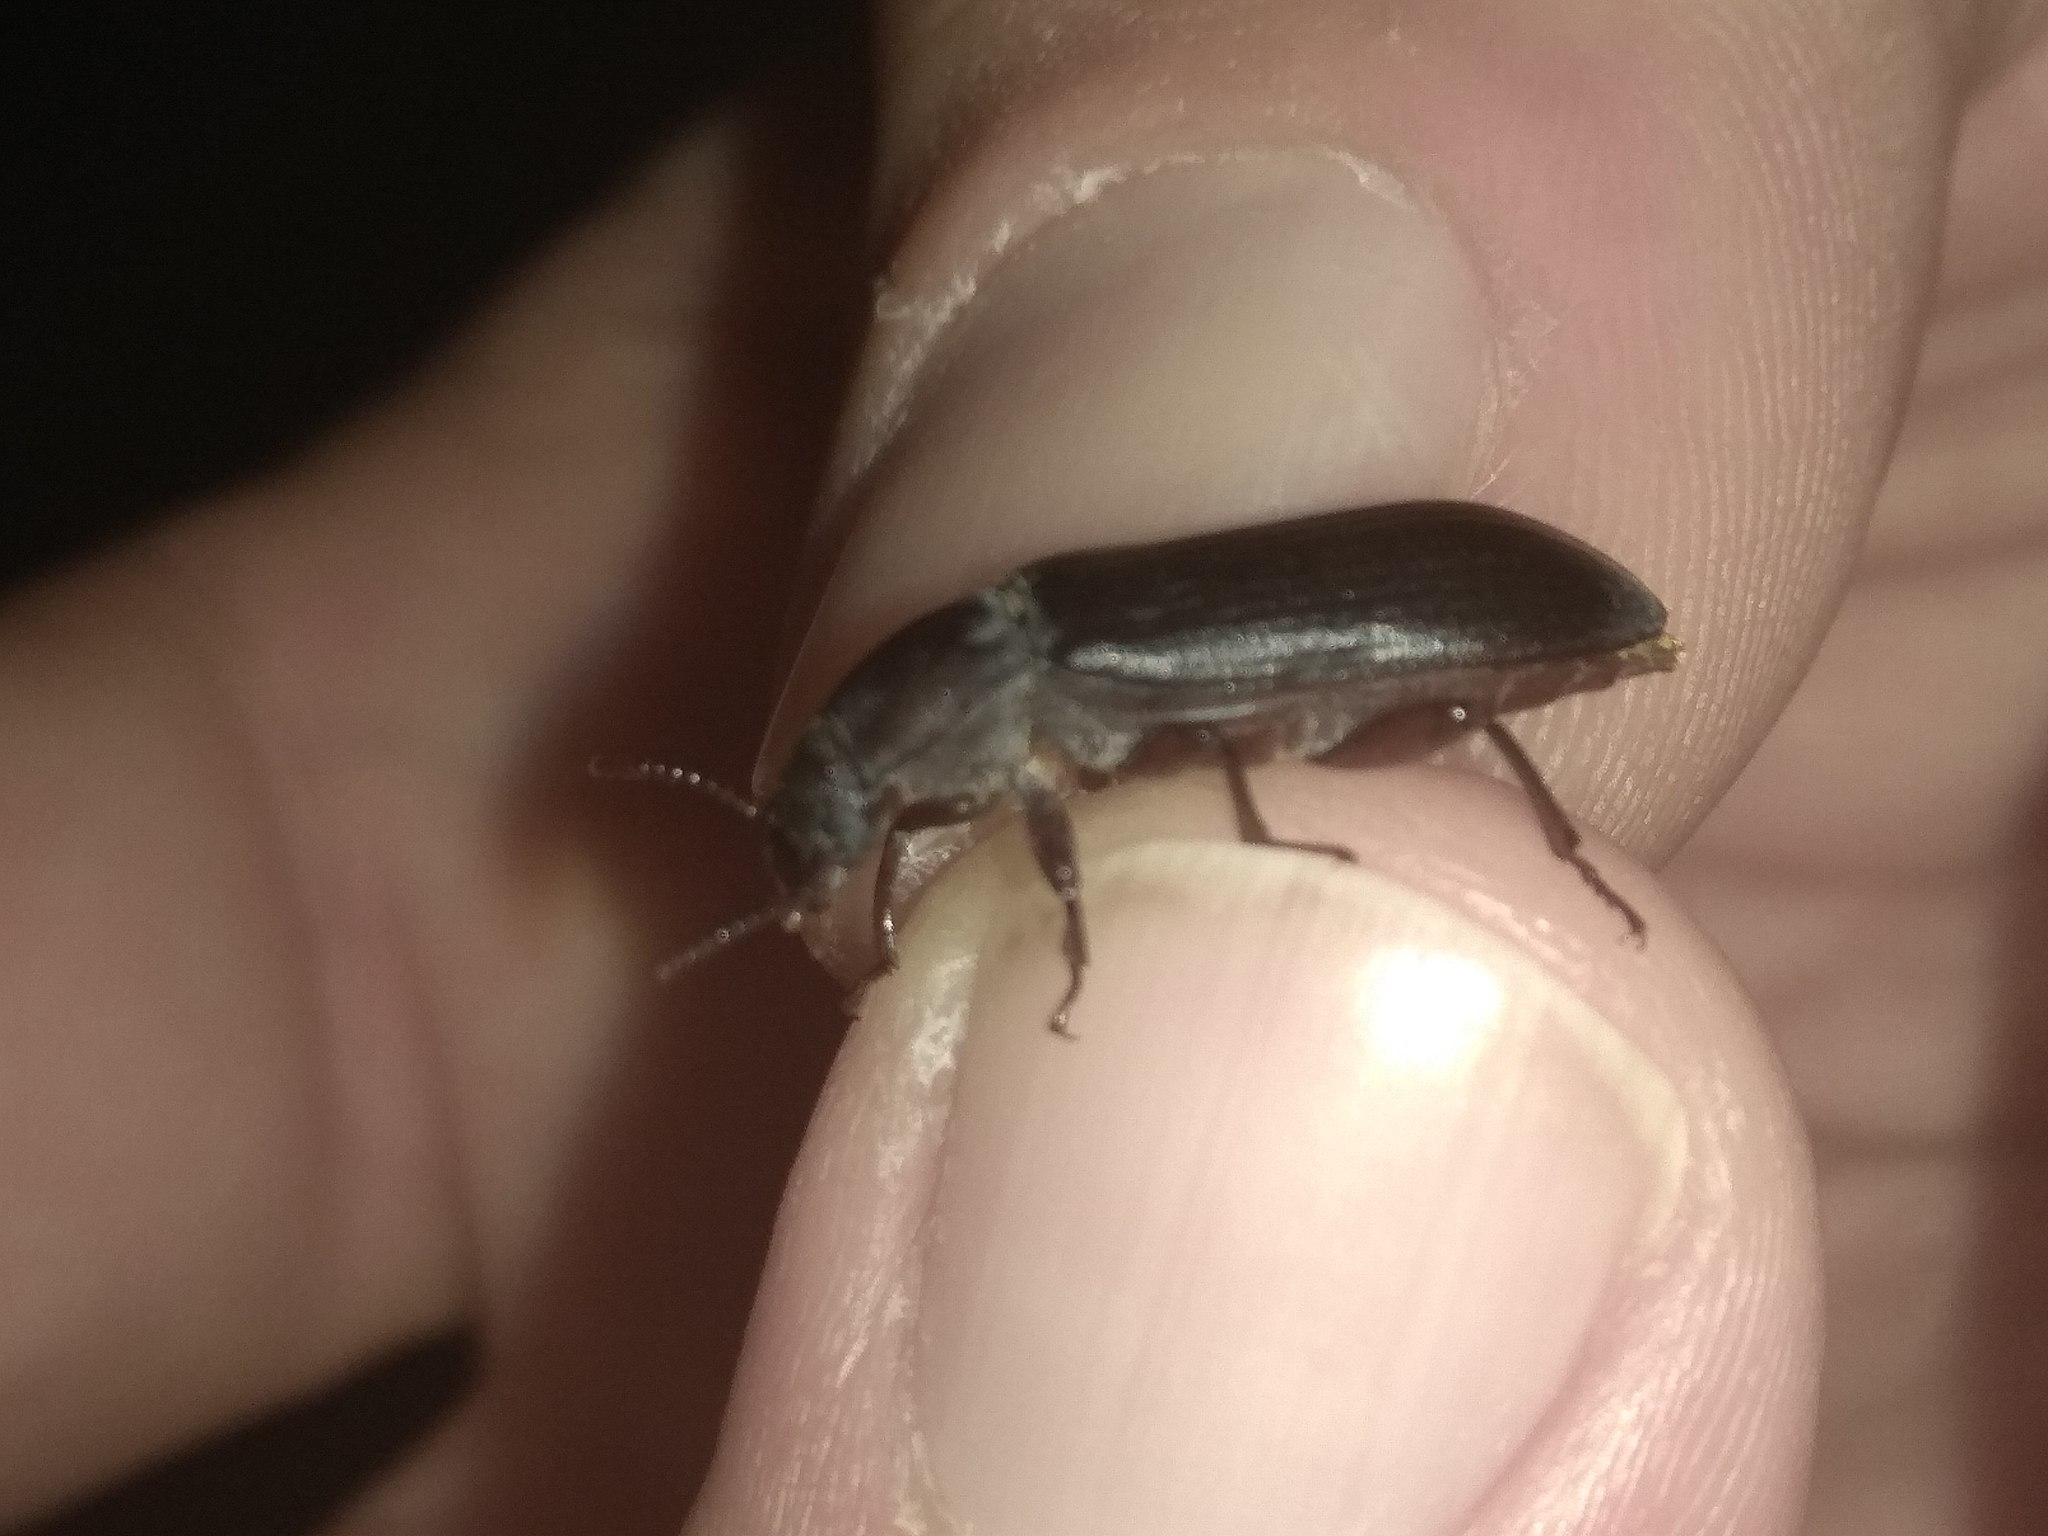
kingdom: Animalia
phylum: Arthropoda
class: Insecta
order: Coleoptera
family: Tenebrionidae
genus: Tenebrio
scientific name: Tenebrio molitor
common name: Hardback beetle
